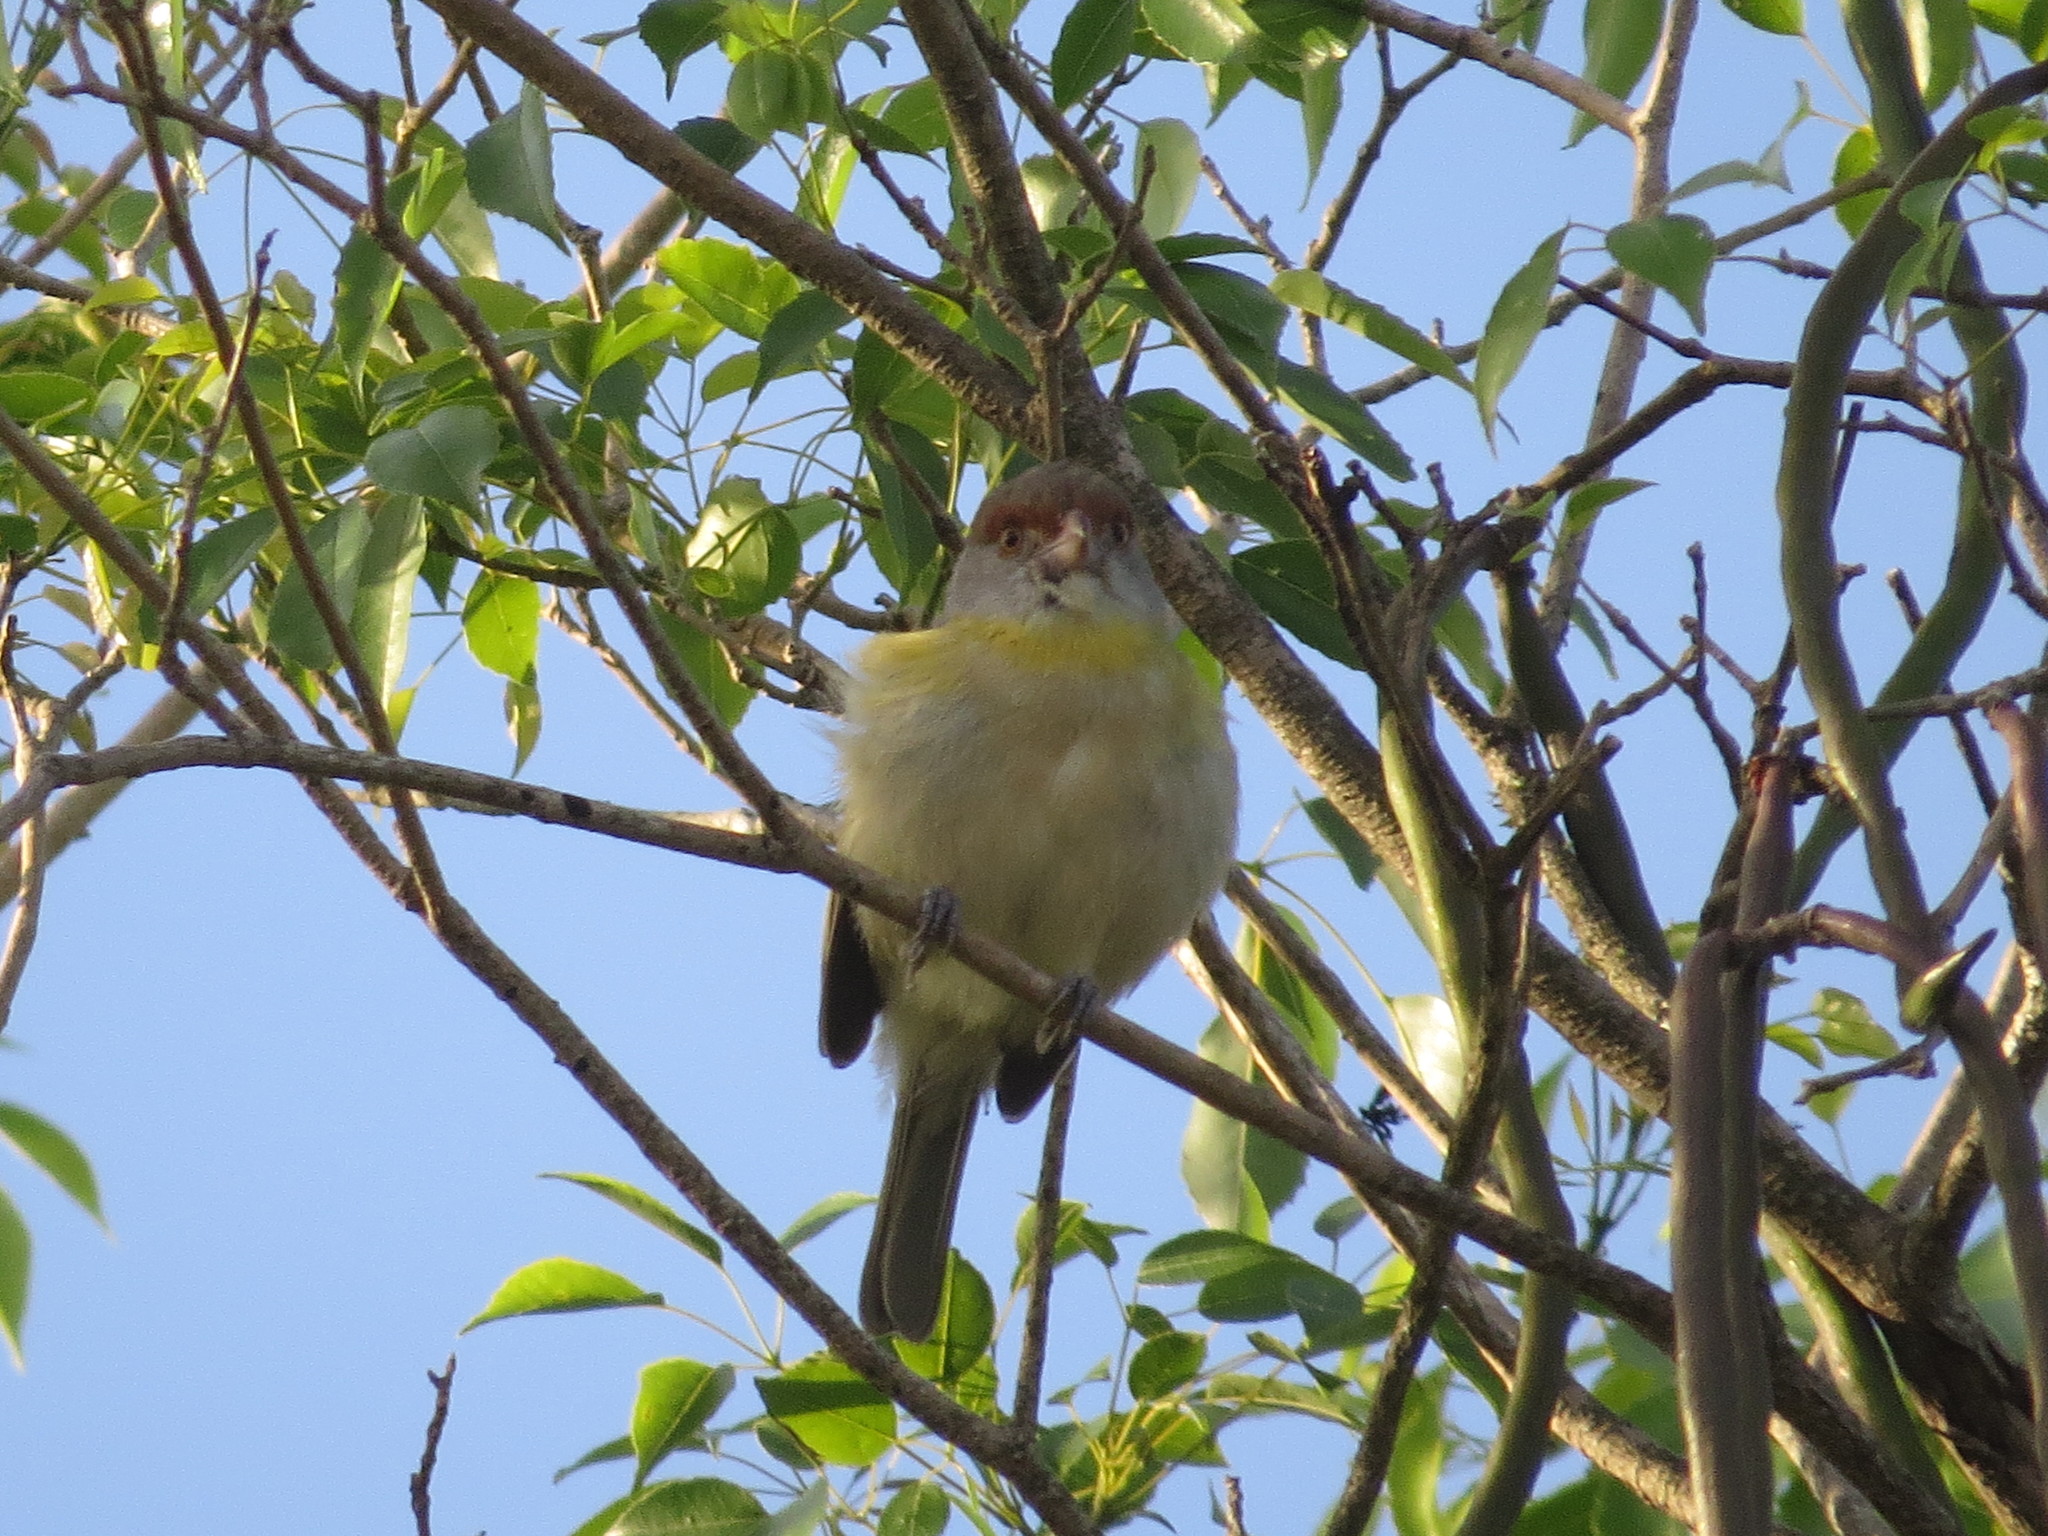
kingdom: Animalia
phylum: Chordata
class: Aves
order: Passeriformes
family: Vireonidae
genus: Cyclarhis
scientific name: Cyclarhis gujanensis
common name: Rufous-browed peppershrike
